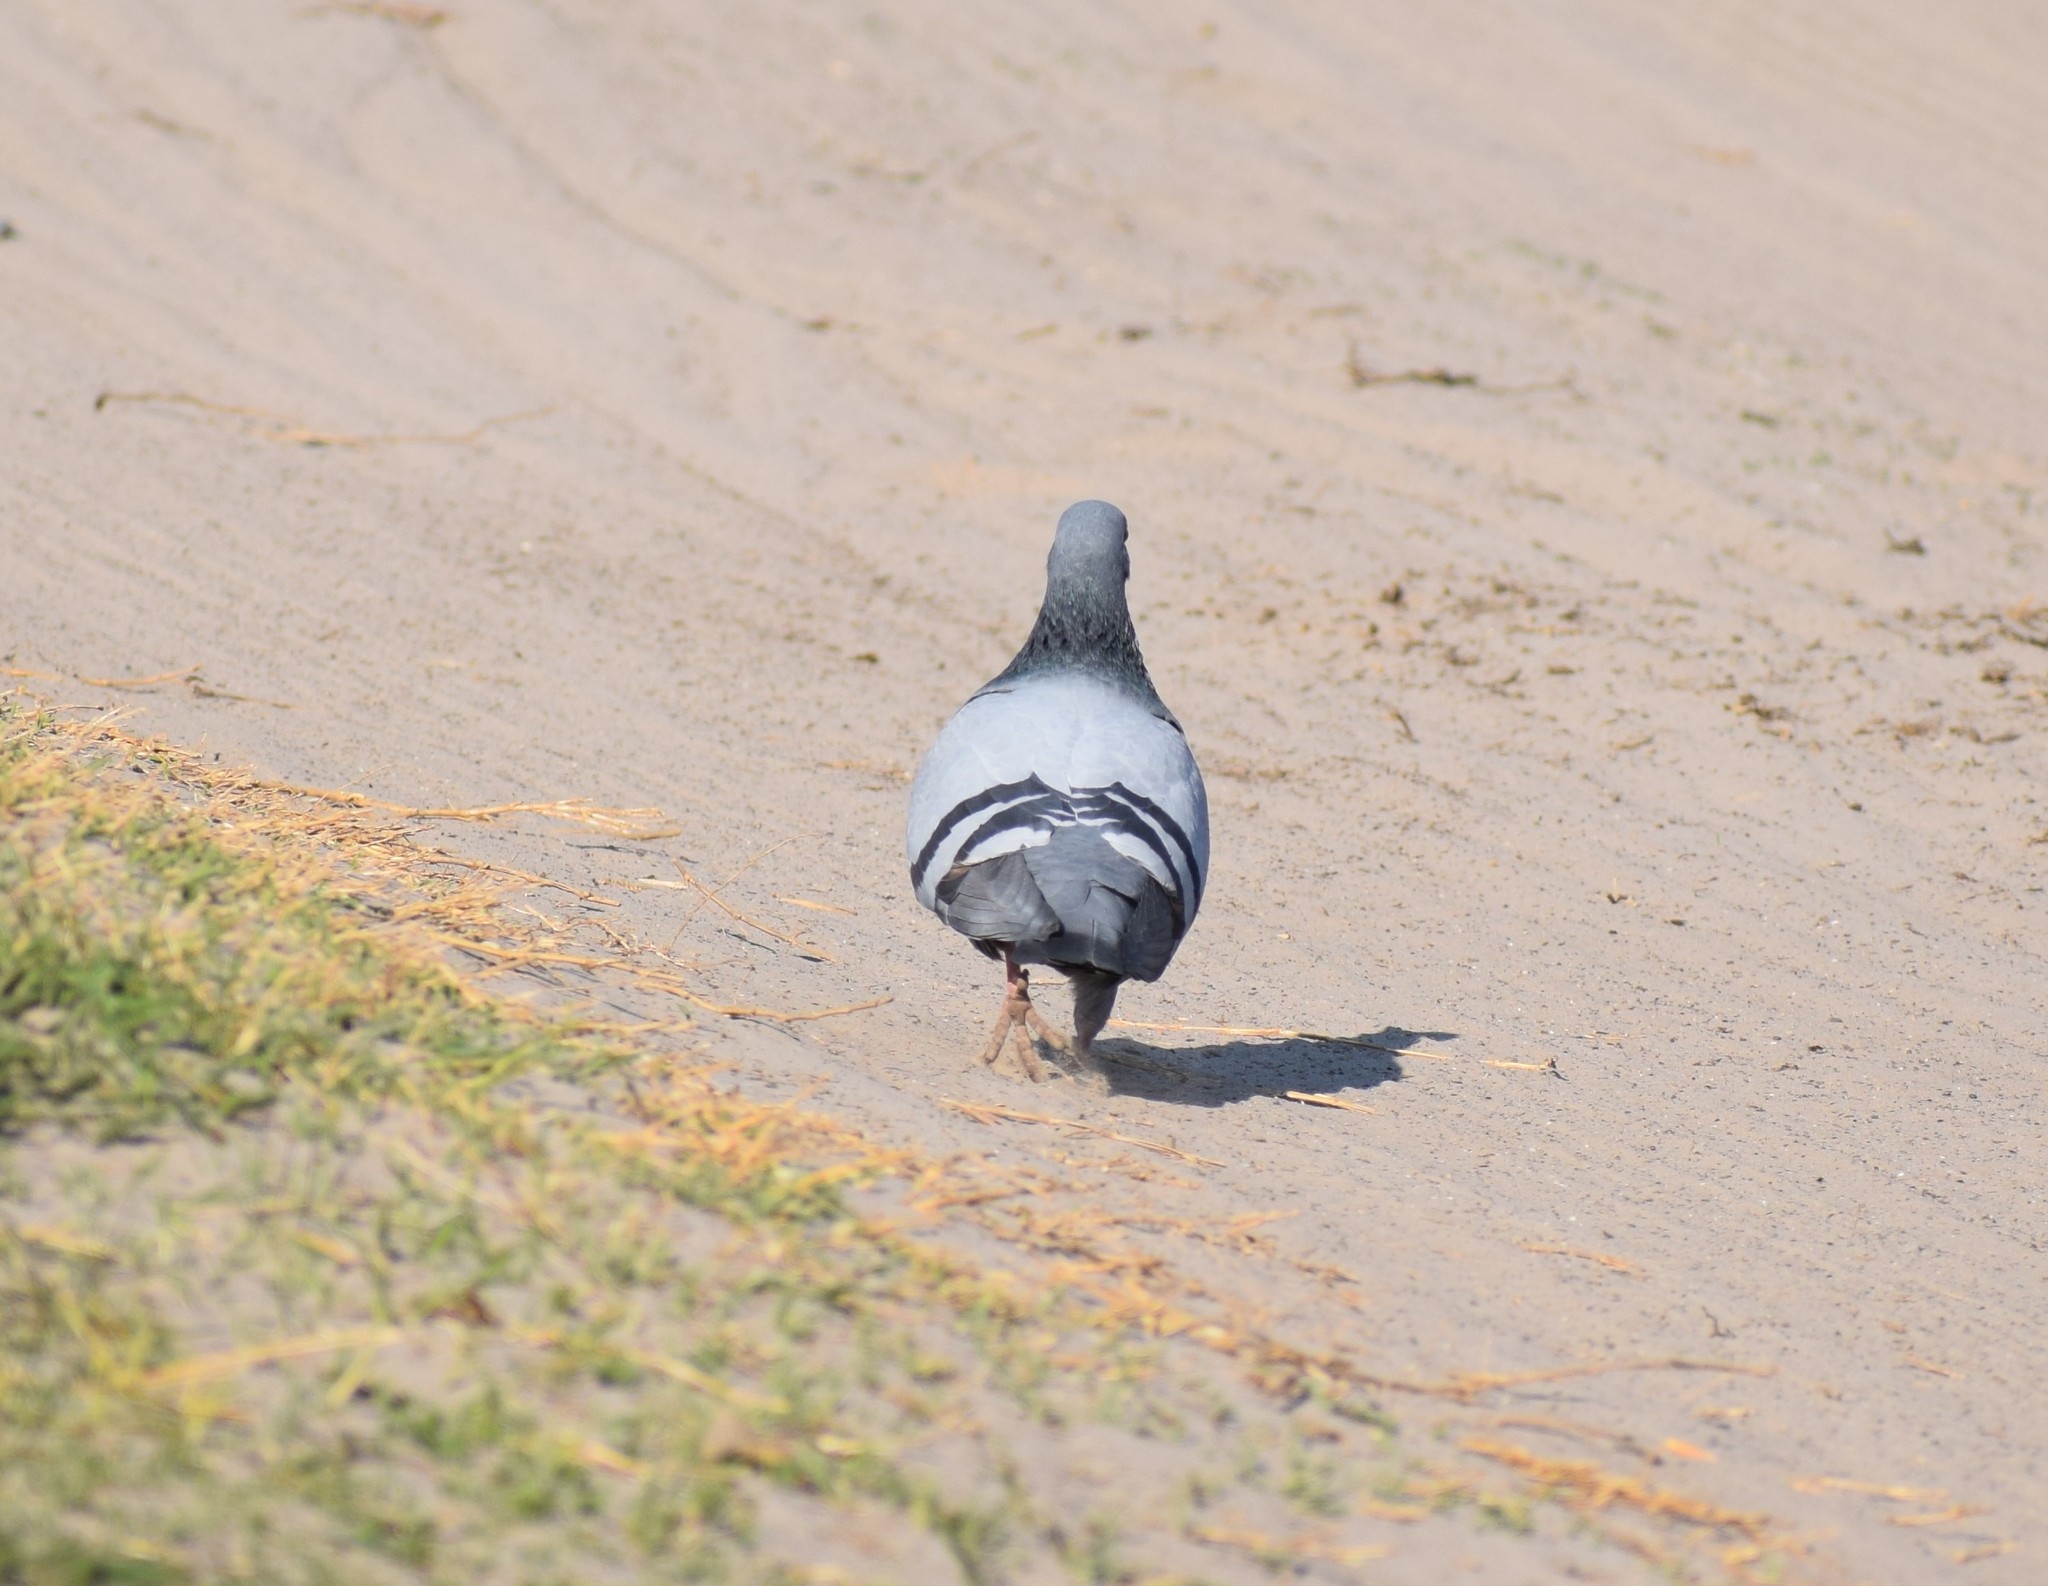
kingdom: Animalia
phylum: Chordata
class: Aves
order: Columbiformes
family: Columbidae
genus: Columba
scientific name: Columba livia
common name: Rock pigeon
